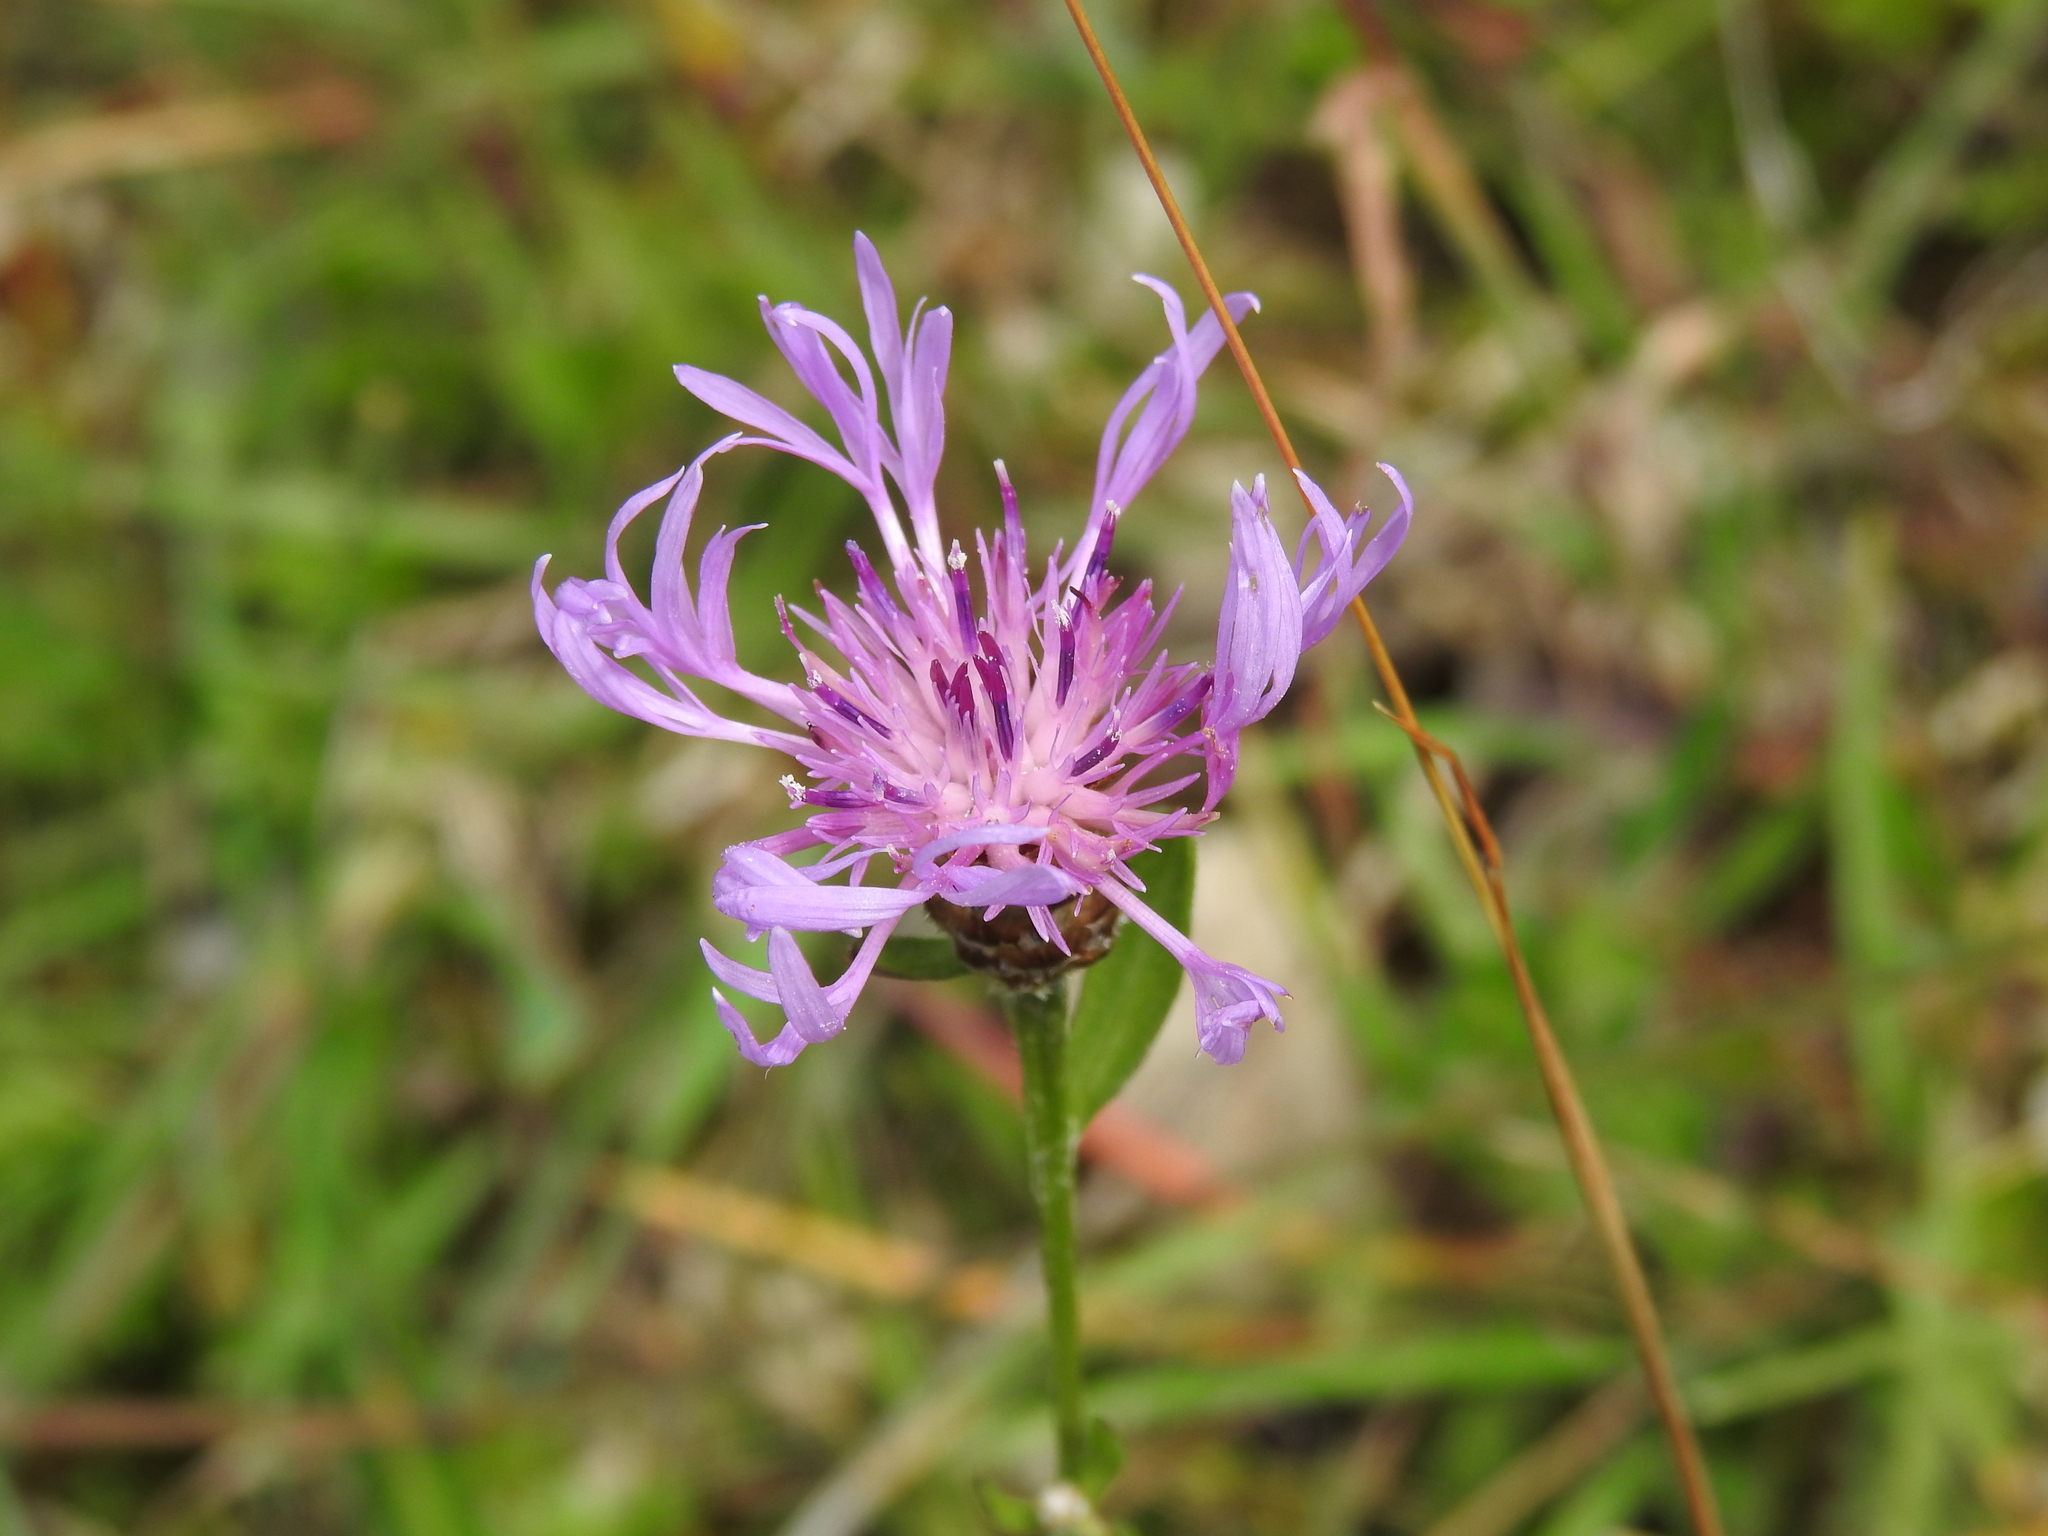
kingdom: Plantae
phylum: Tracheophyta
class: Magnoliopsida
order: Asterales
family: Asteraceae
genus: Centaurea
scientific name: Centaurea jacea
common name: Brown knapweed
